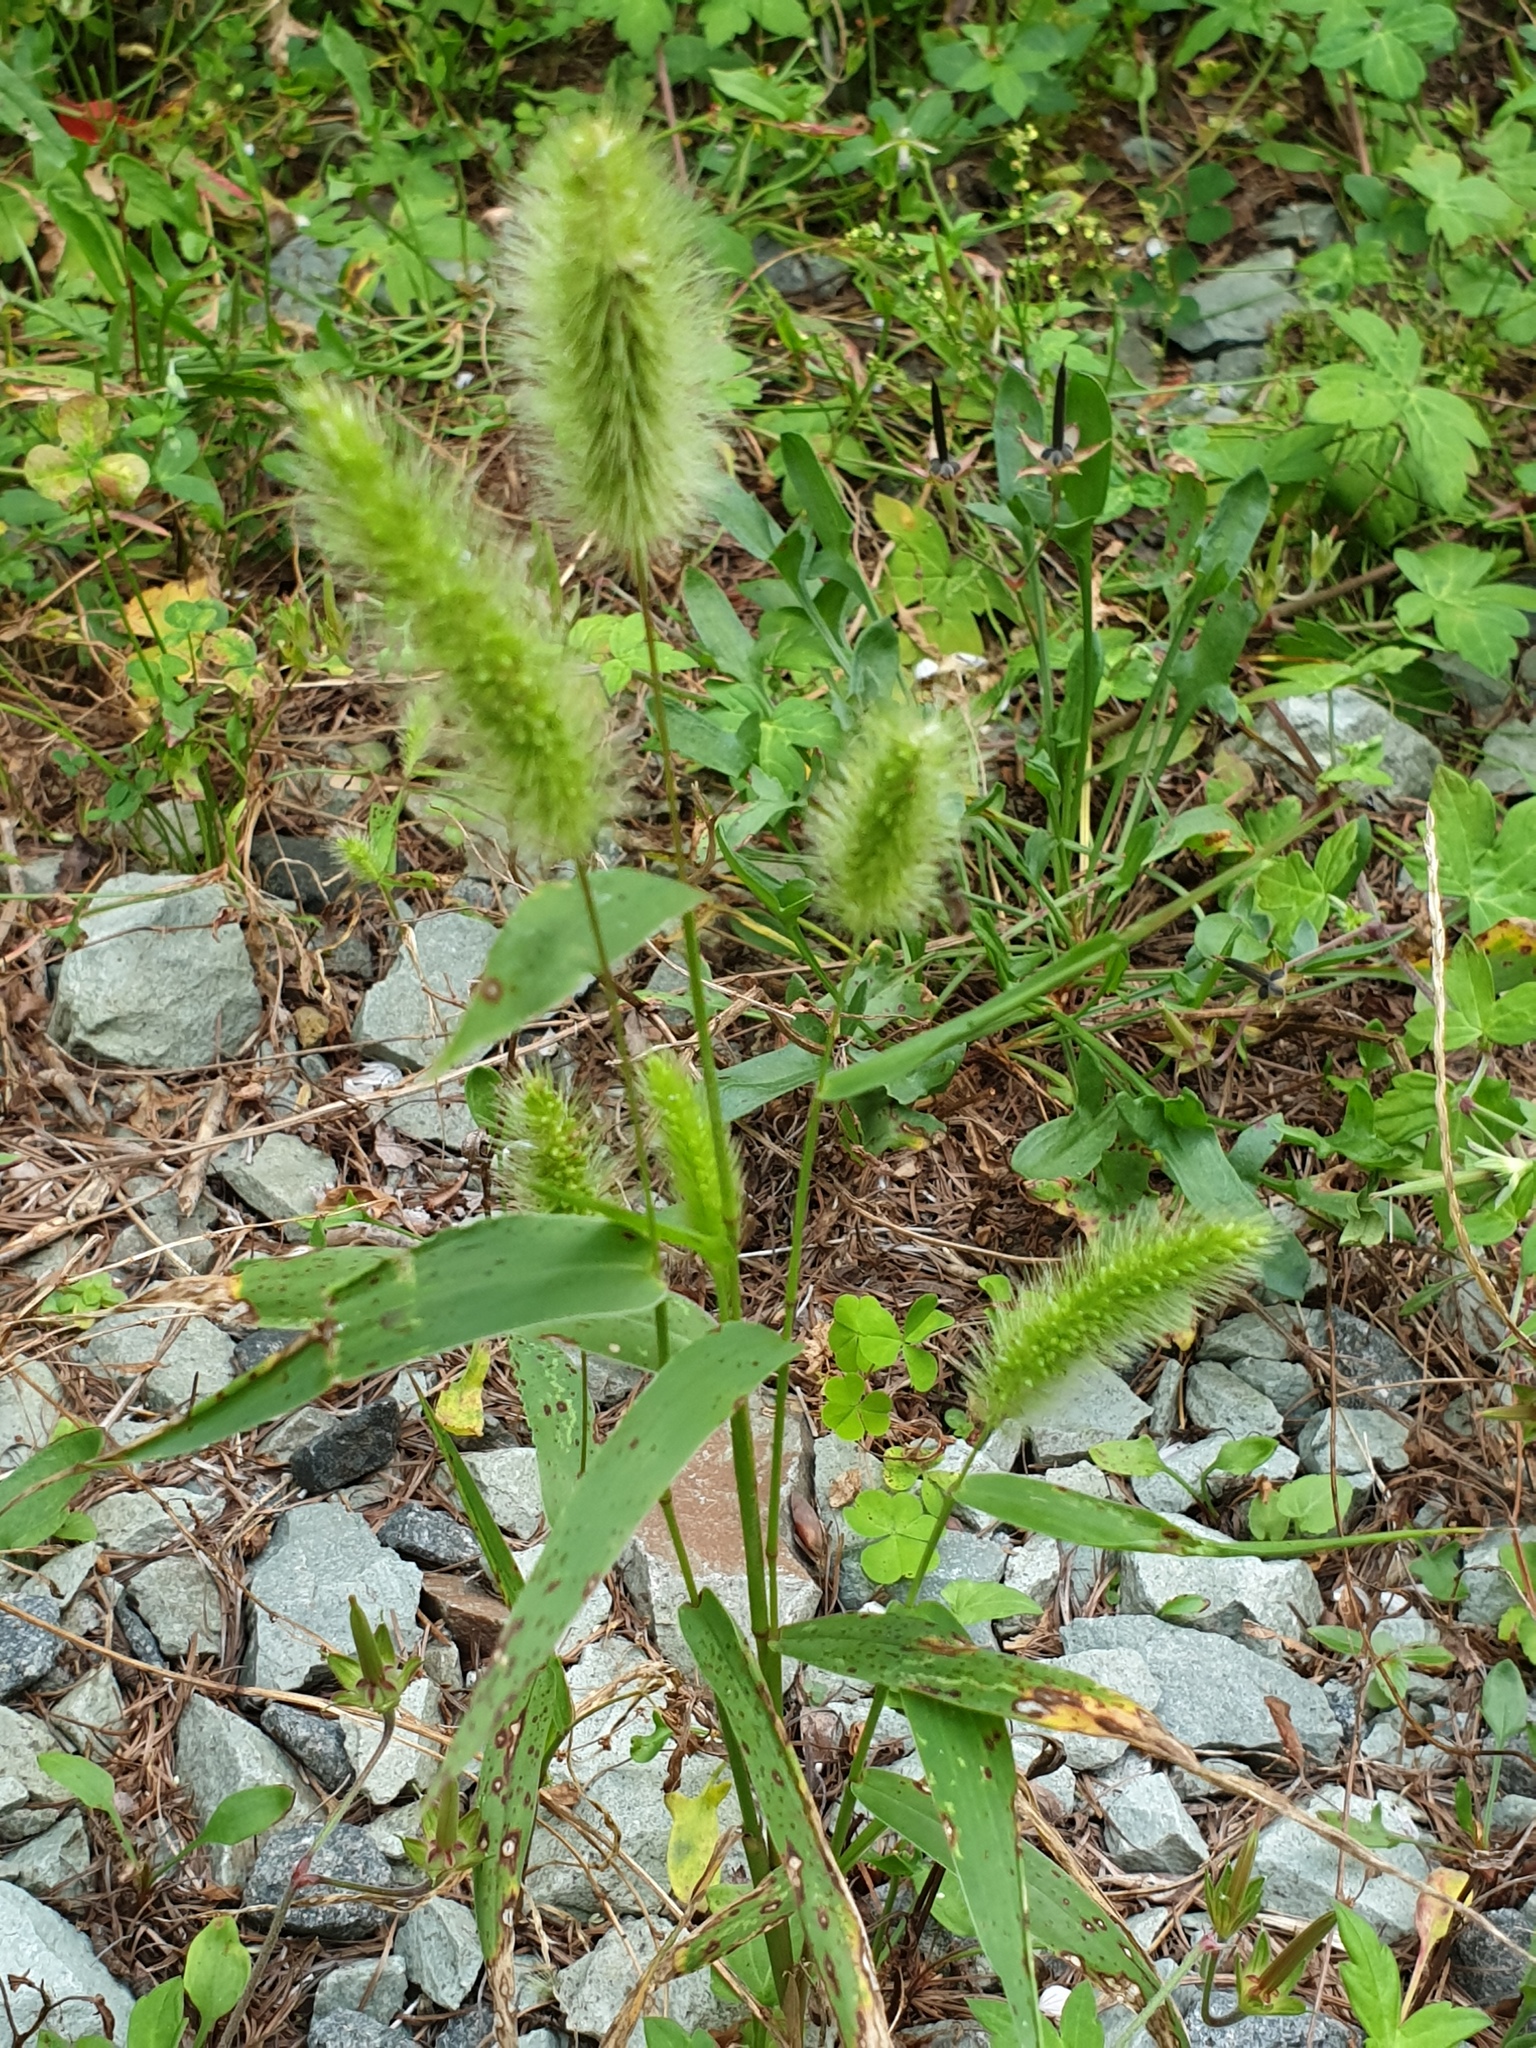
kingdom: Plantae
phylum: Tracheophyta
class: Liliopsida
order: Poales
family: Poaceae
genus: Setaria
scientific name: Setaria viridis
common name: Green bristlegrass
